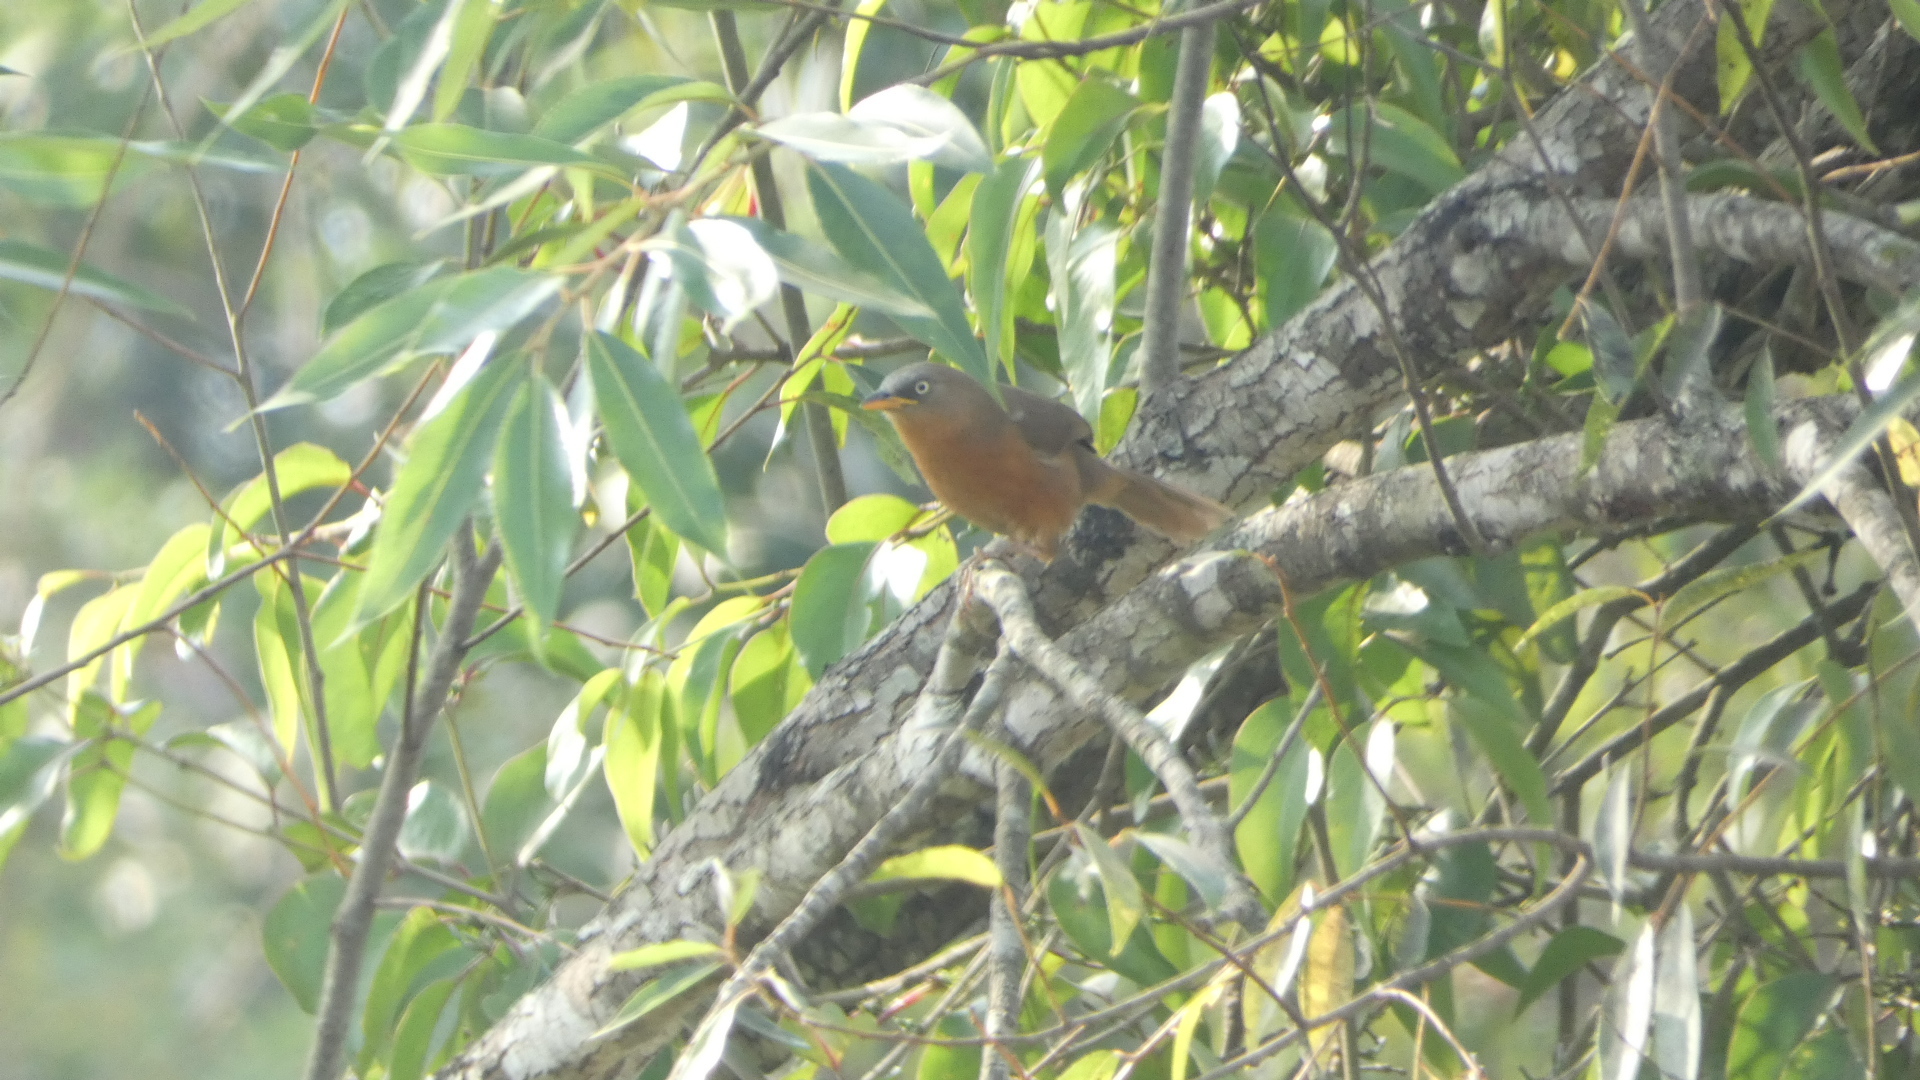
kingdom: Animalia
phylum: Chordata
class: Aves
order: Passeriformes
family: Leiothrichidae
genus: Turdoides
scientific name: Turdoides subrufa
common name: Rufous babbler
